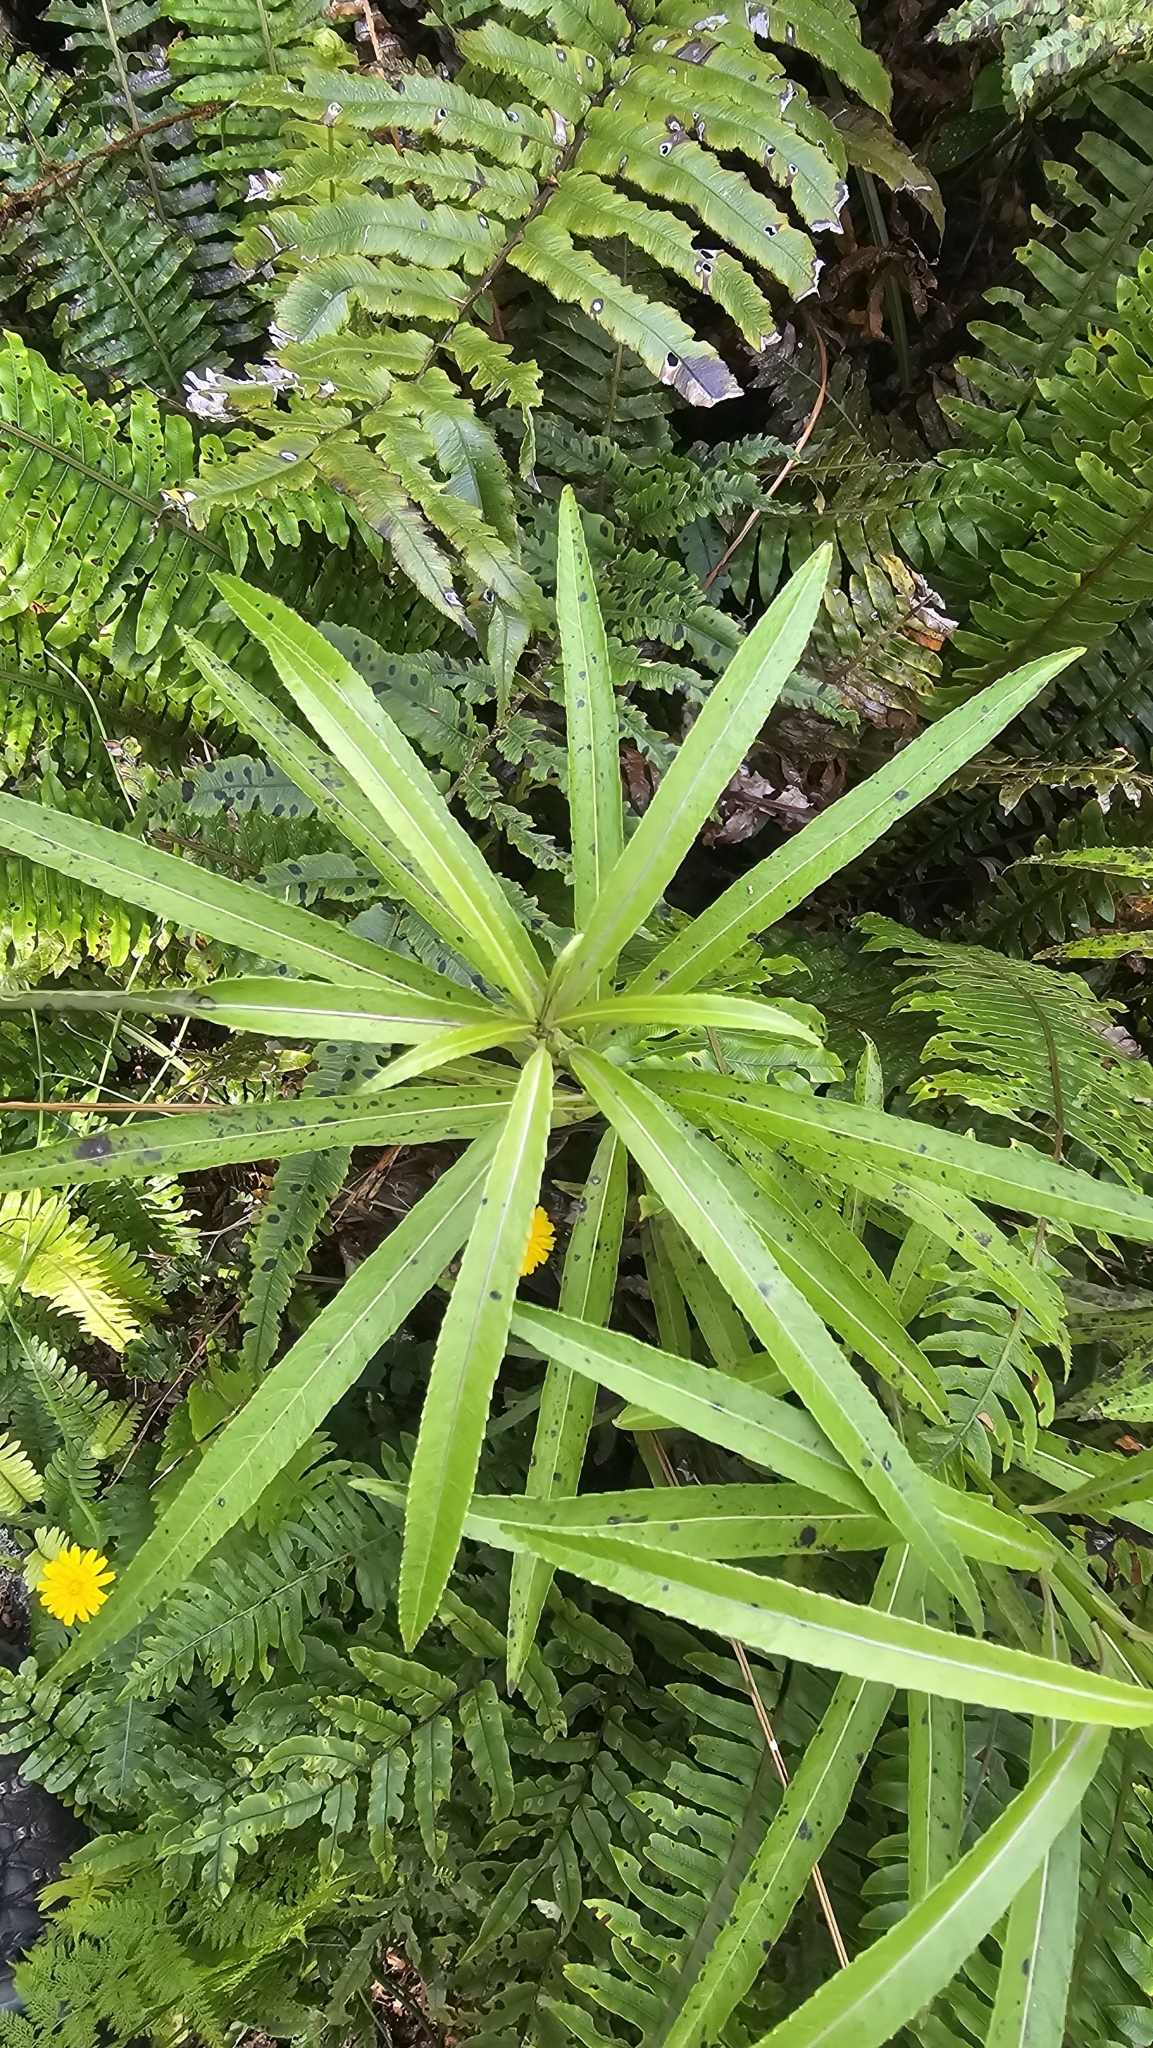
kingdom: Plantae
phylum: Tracheophyta
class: Magnoliopsida
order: Malpighiales
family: Violaceae
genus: Melicytus
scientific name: Melicytus lanceolatus
